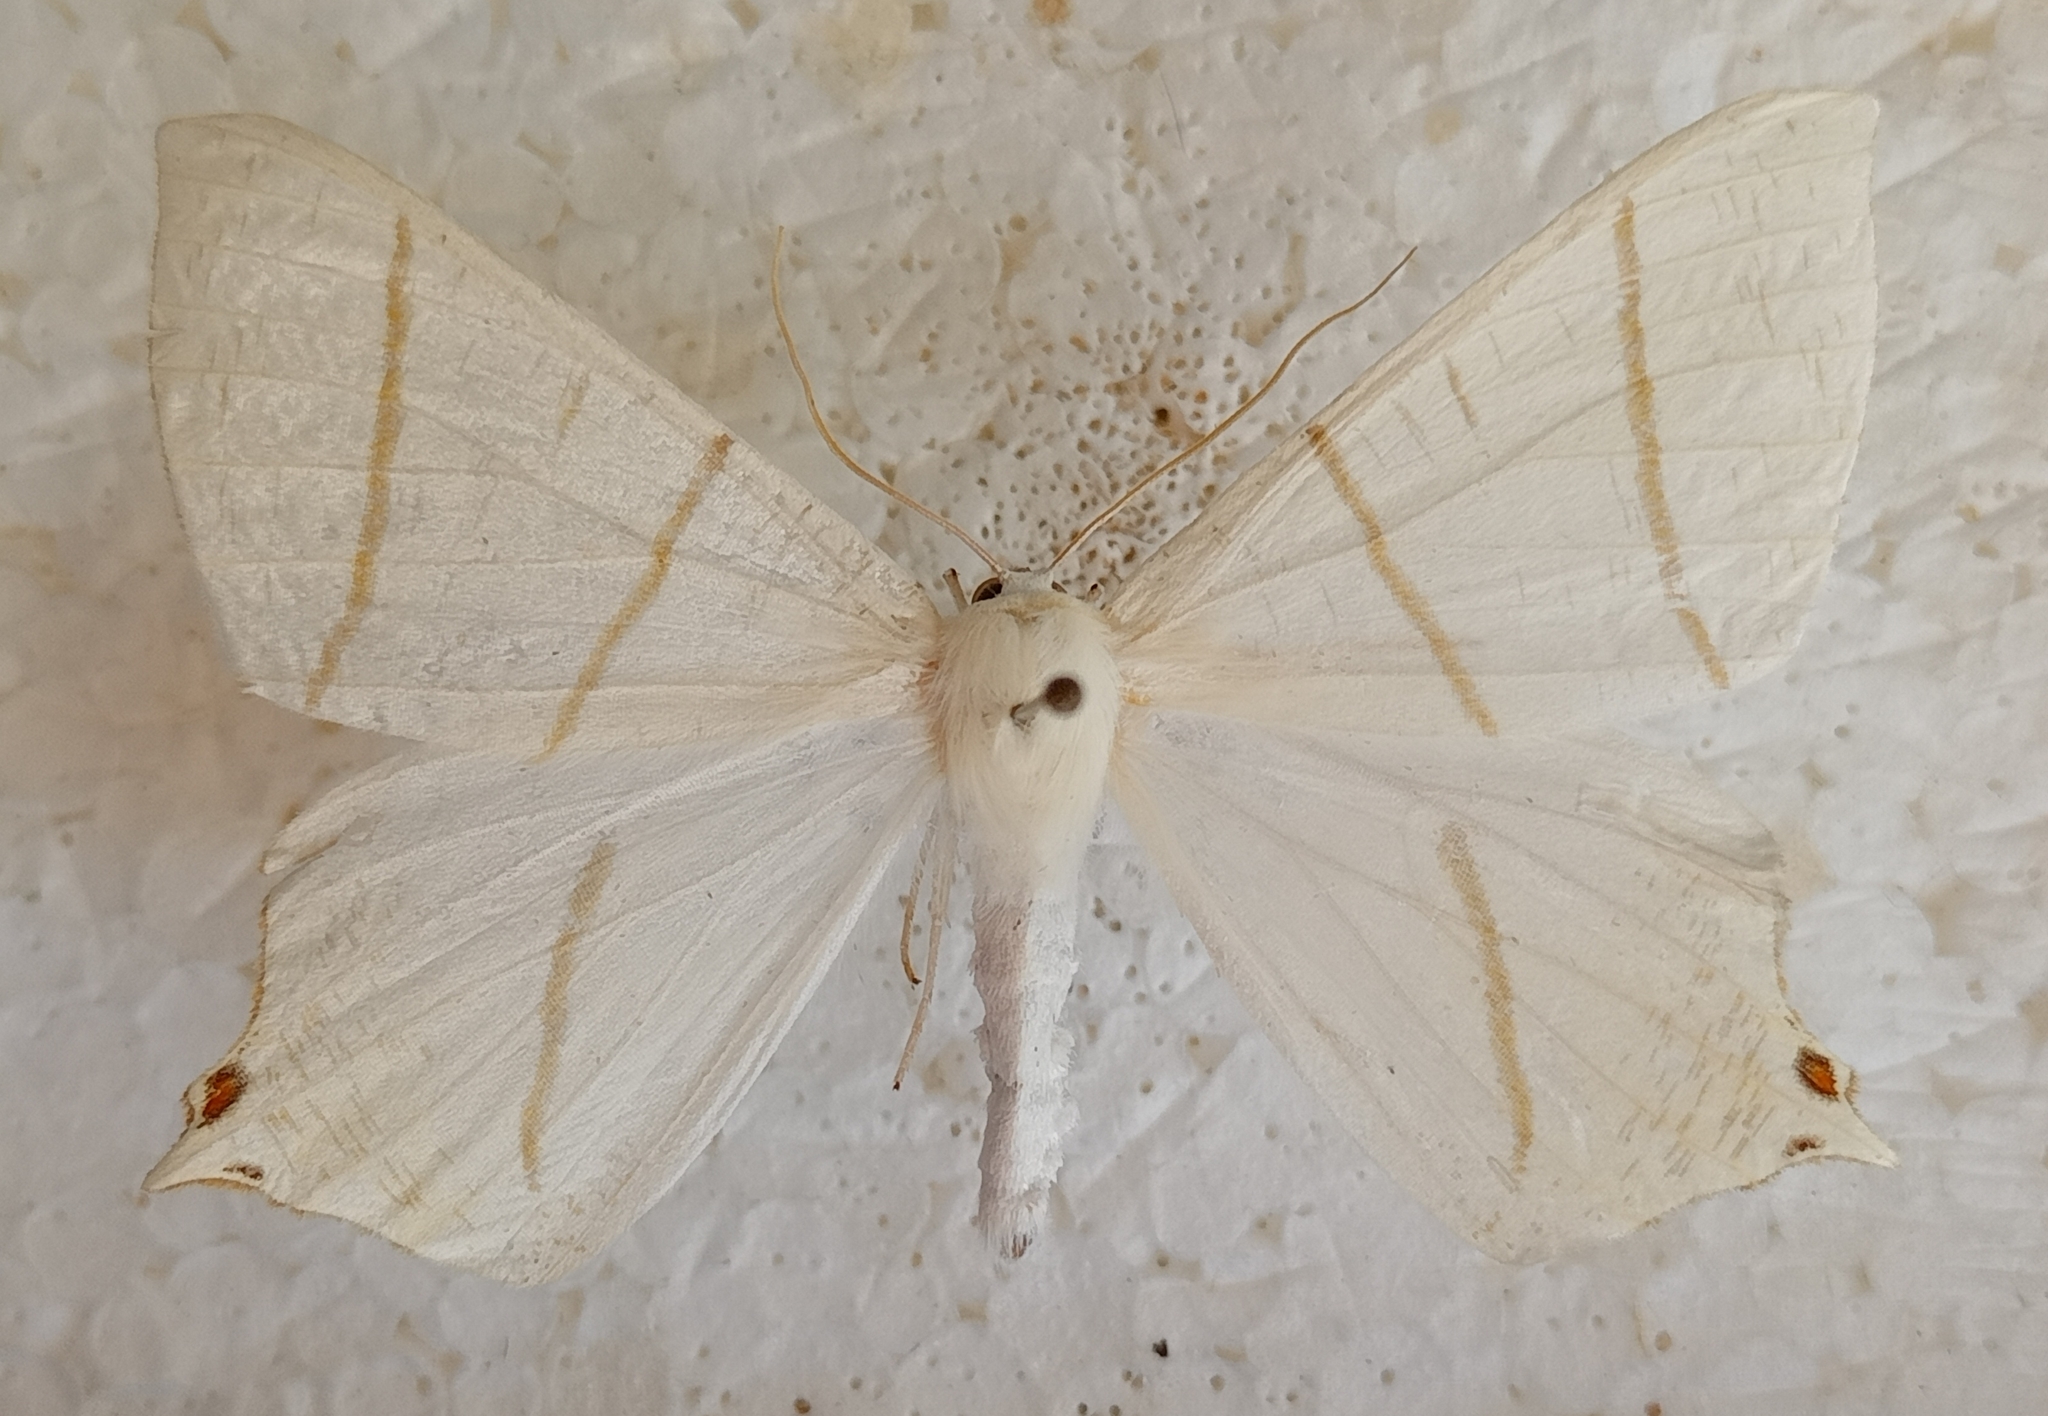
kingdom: Animalia
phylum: Arthropoda
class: Insecta
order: Lepidoptera
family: Geometridae
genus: Ourapteryx
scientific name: Ourapteryx sambucaria
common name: Swallow-tailed moth
